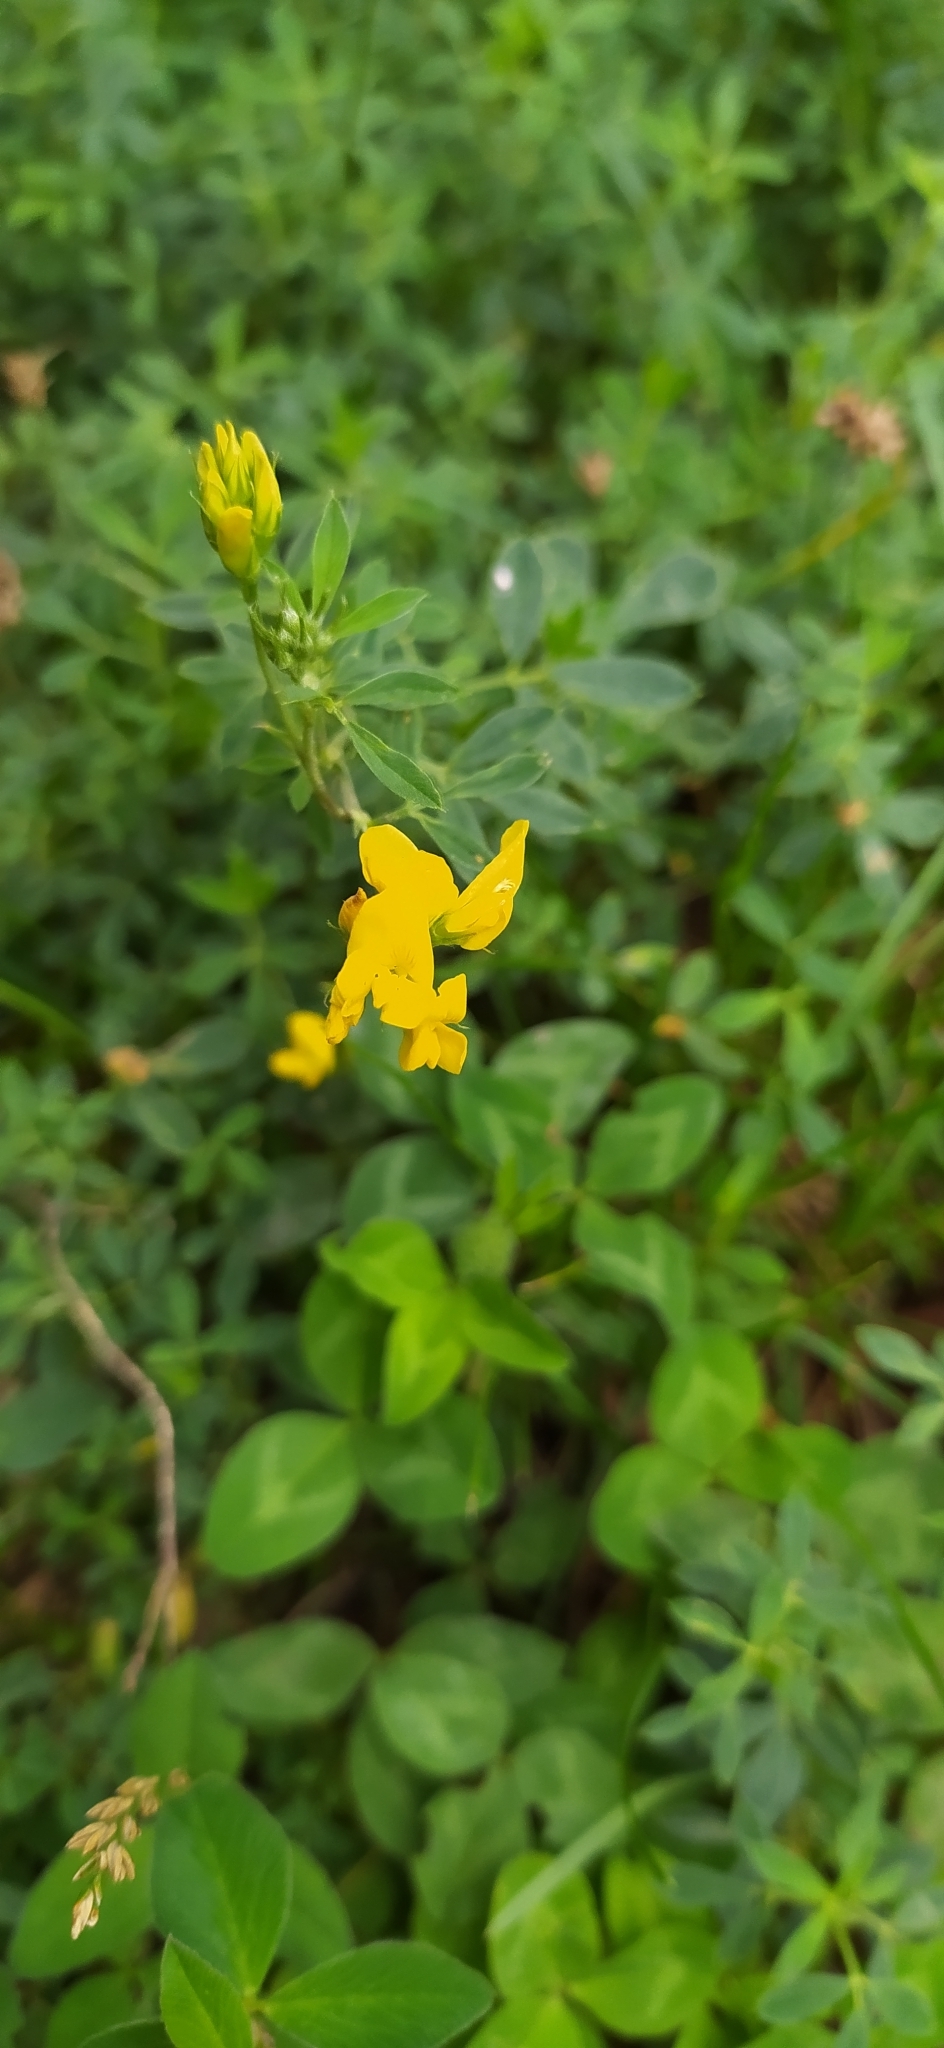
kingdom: Plantae
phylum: Tracheophyta
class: Magnoliopsida
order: Fabales
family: Fabaceae
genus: Medicago
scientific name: Medicago falcata
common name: Sickle medick
